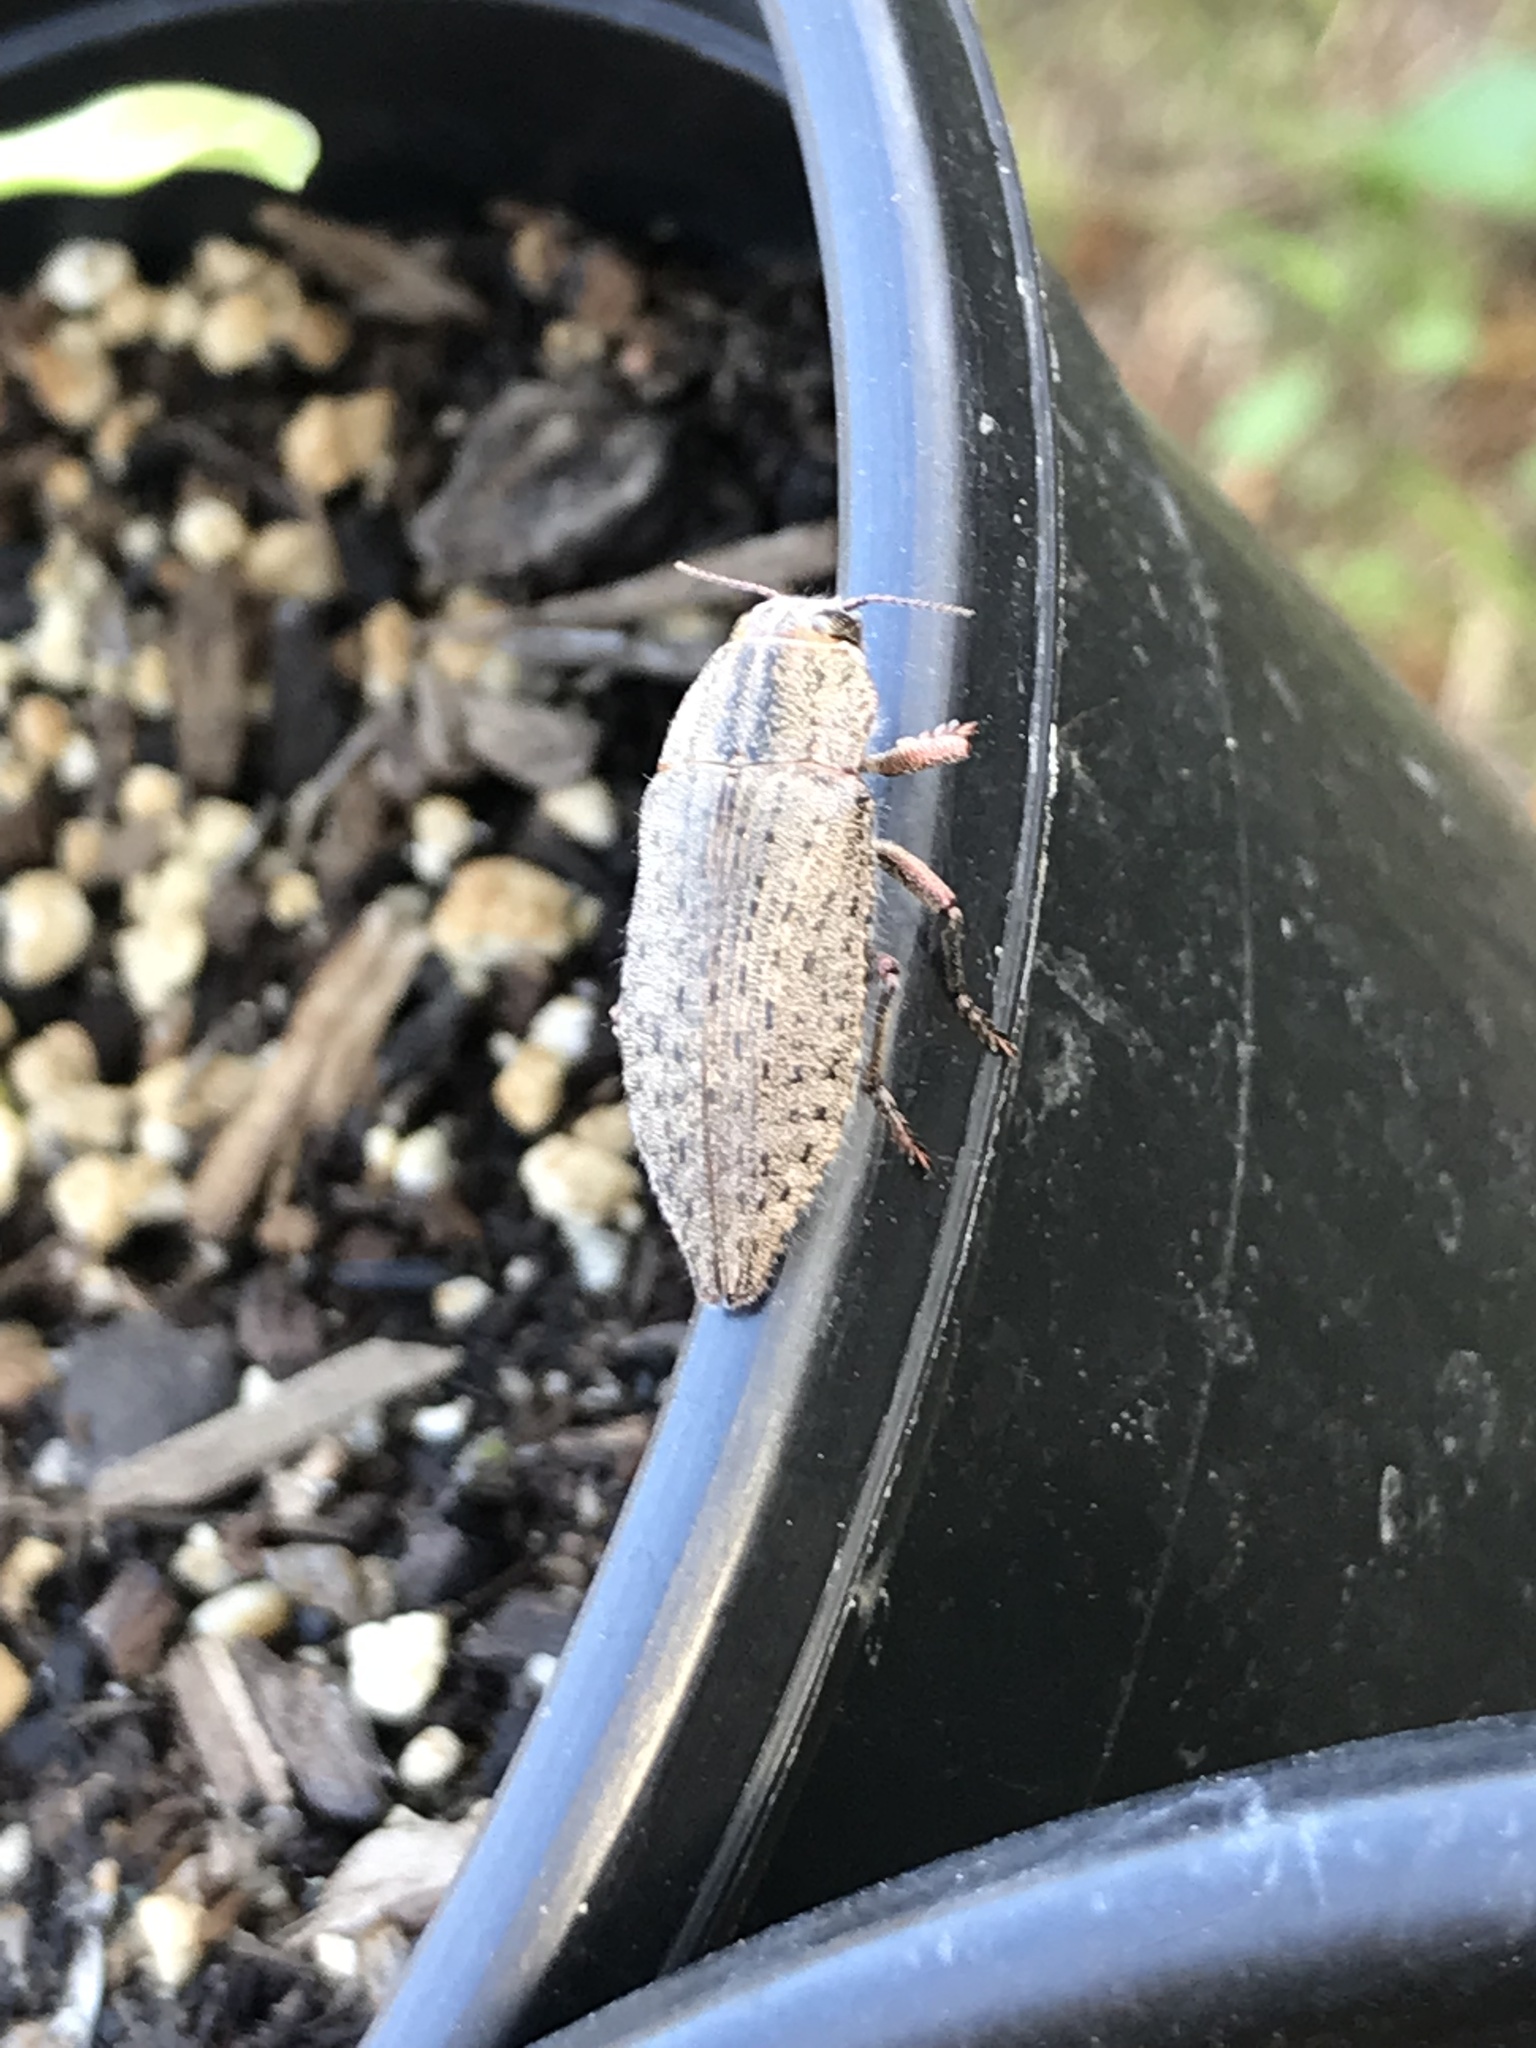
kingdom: Animalia
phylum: Arthropoda
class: Insecta
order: Coleoptera
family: Buprestidae
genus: Dicerca
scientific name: Dicerca hornii
